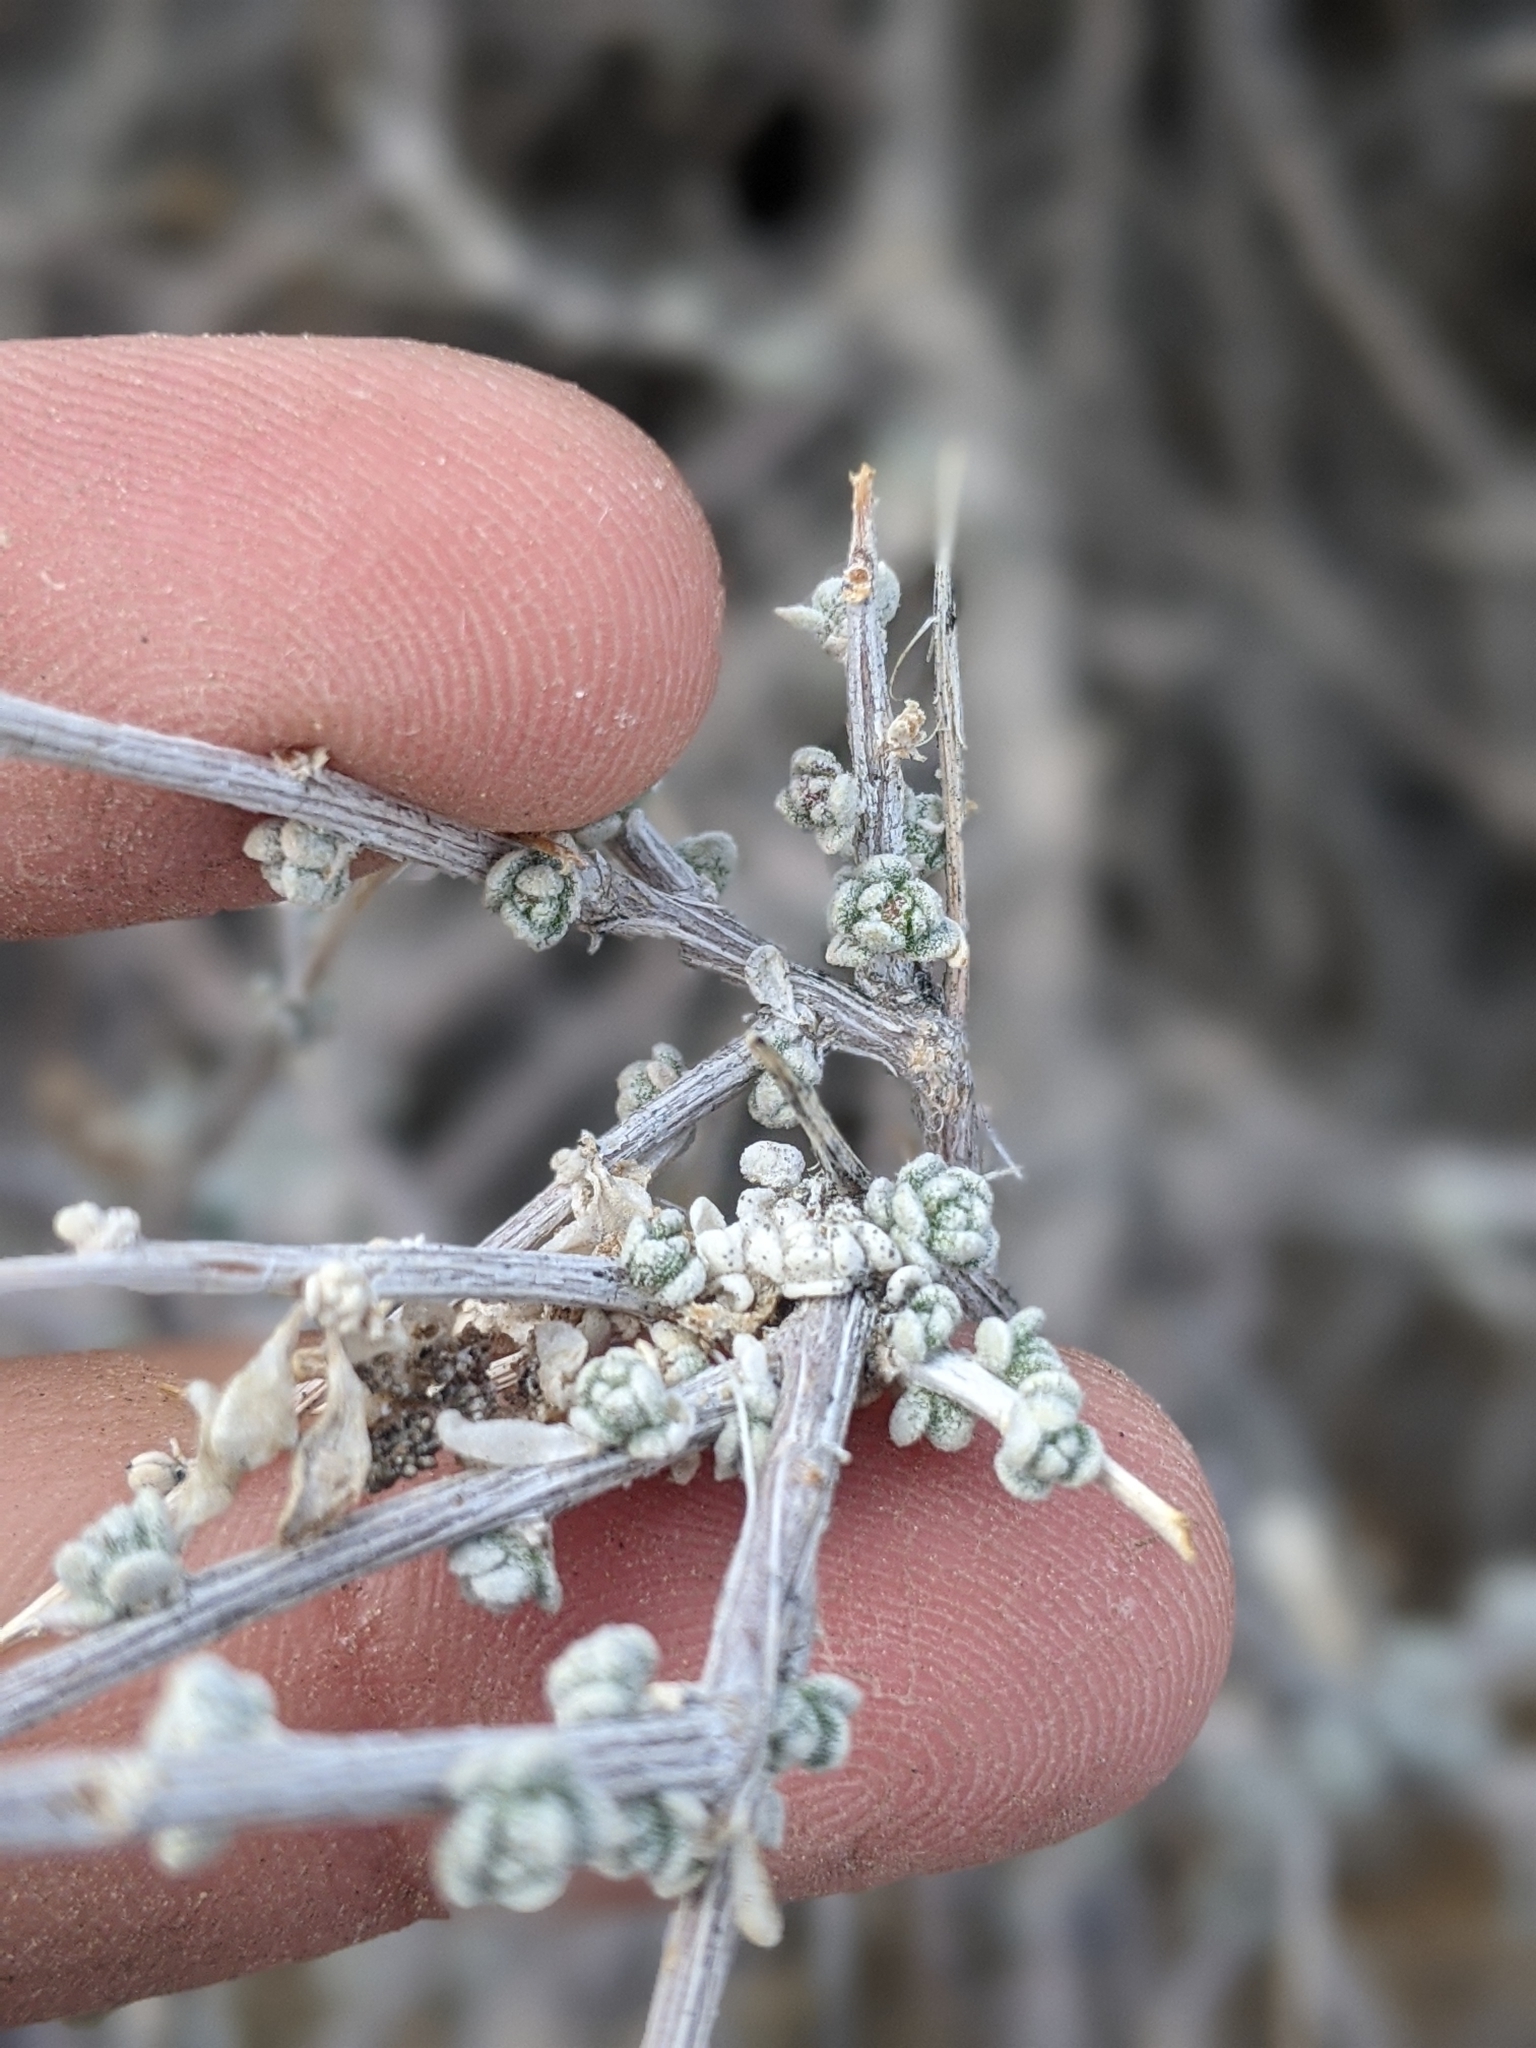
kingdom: Plantae
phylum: Tracheophyta
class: Magnoliopsida
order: Caryophyllales
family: Amaranthaceae
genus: Grayia
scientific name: Grayia spinosa
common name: Spiny hopsage
